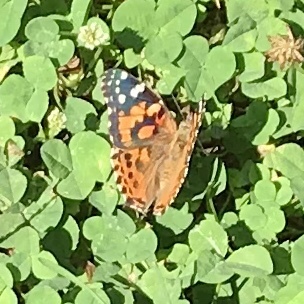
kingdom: Animalia
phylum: Arthropoda
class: Insecta
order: Lepidoptera
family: Nymphalidae
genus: Vanessa
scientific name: Vanessa cardui
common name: Painted lady
